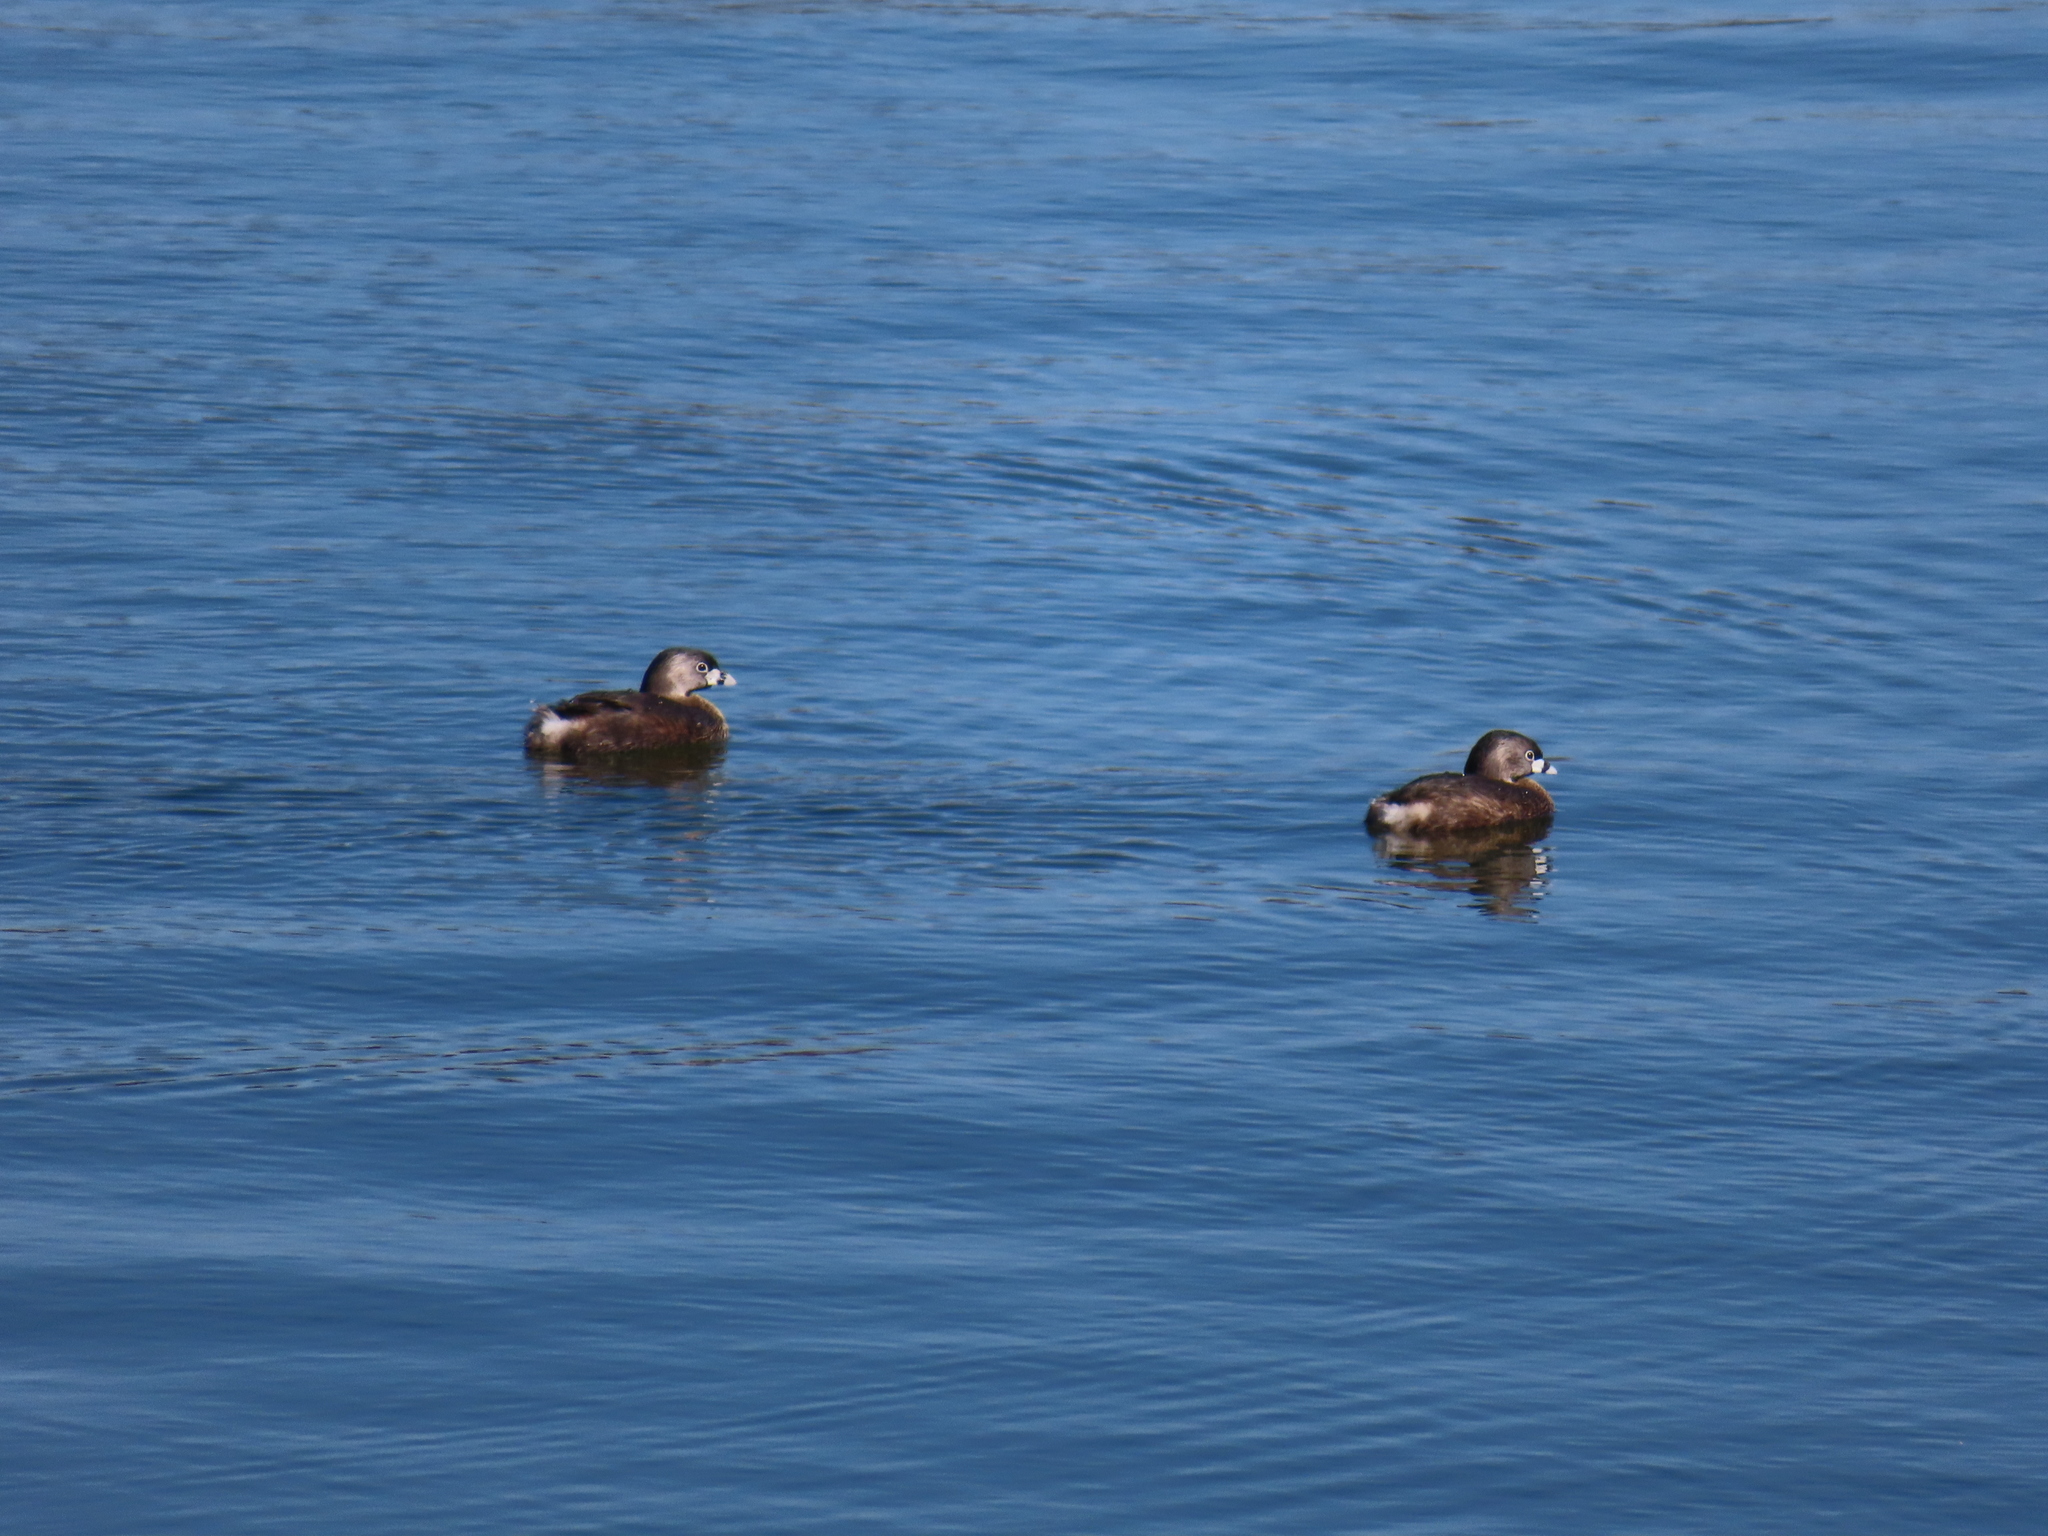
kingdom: Animalia
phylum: Chordata
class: Aves
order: Podicipediformes
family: Podicipedidae
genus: Podilymbus
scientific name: Podilymbus podiceps
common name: Pied-billed grebe
